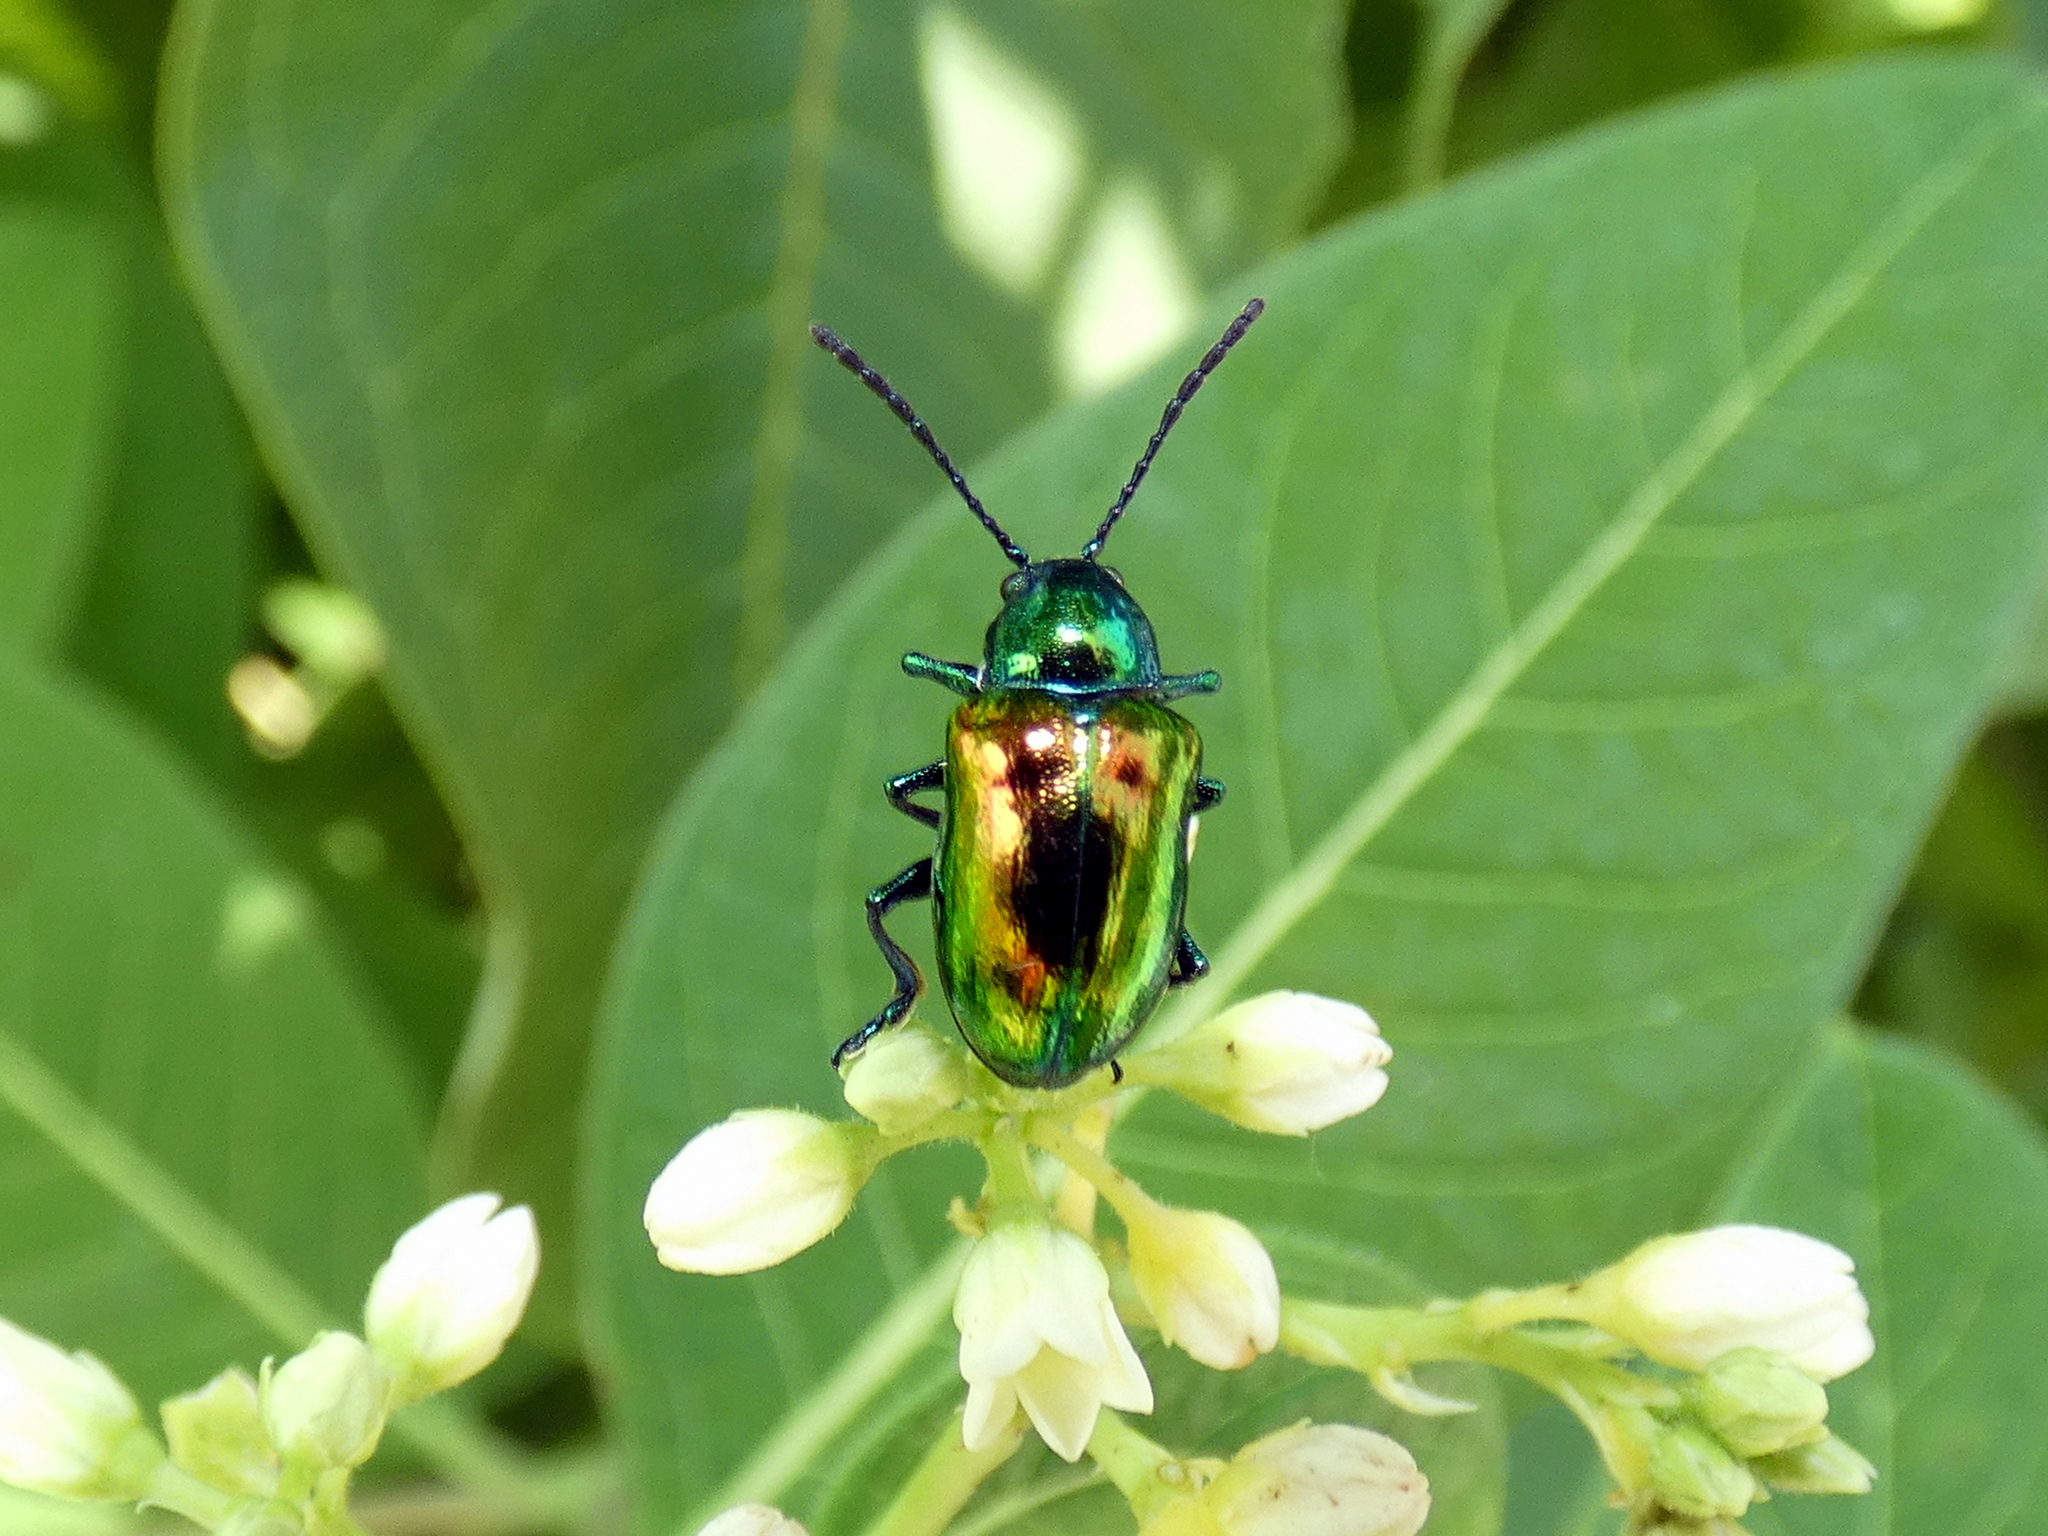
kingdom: Animalia
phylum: Arthropoda
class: Insecta
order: Coleoptera
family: Chrysomelidae
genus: Chrysochus
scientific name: Chrysochus auratus
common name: Dogbane leaf beetle
